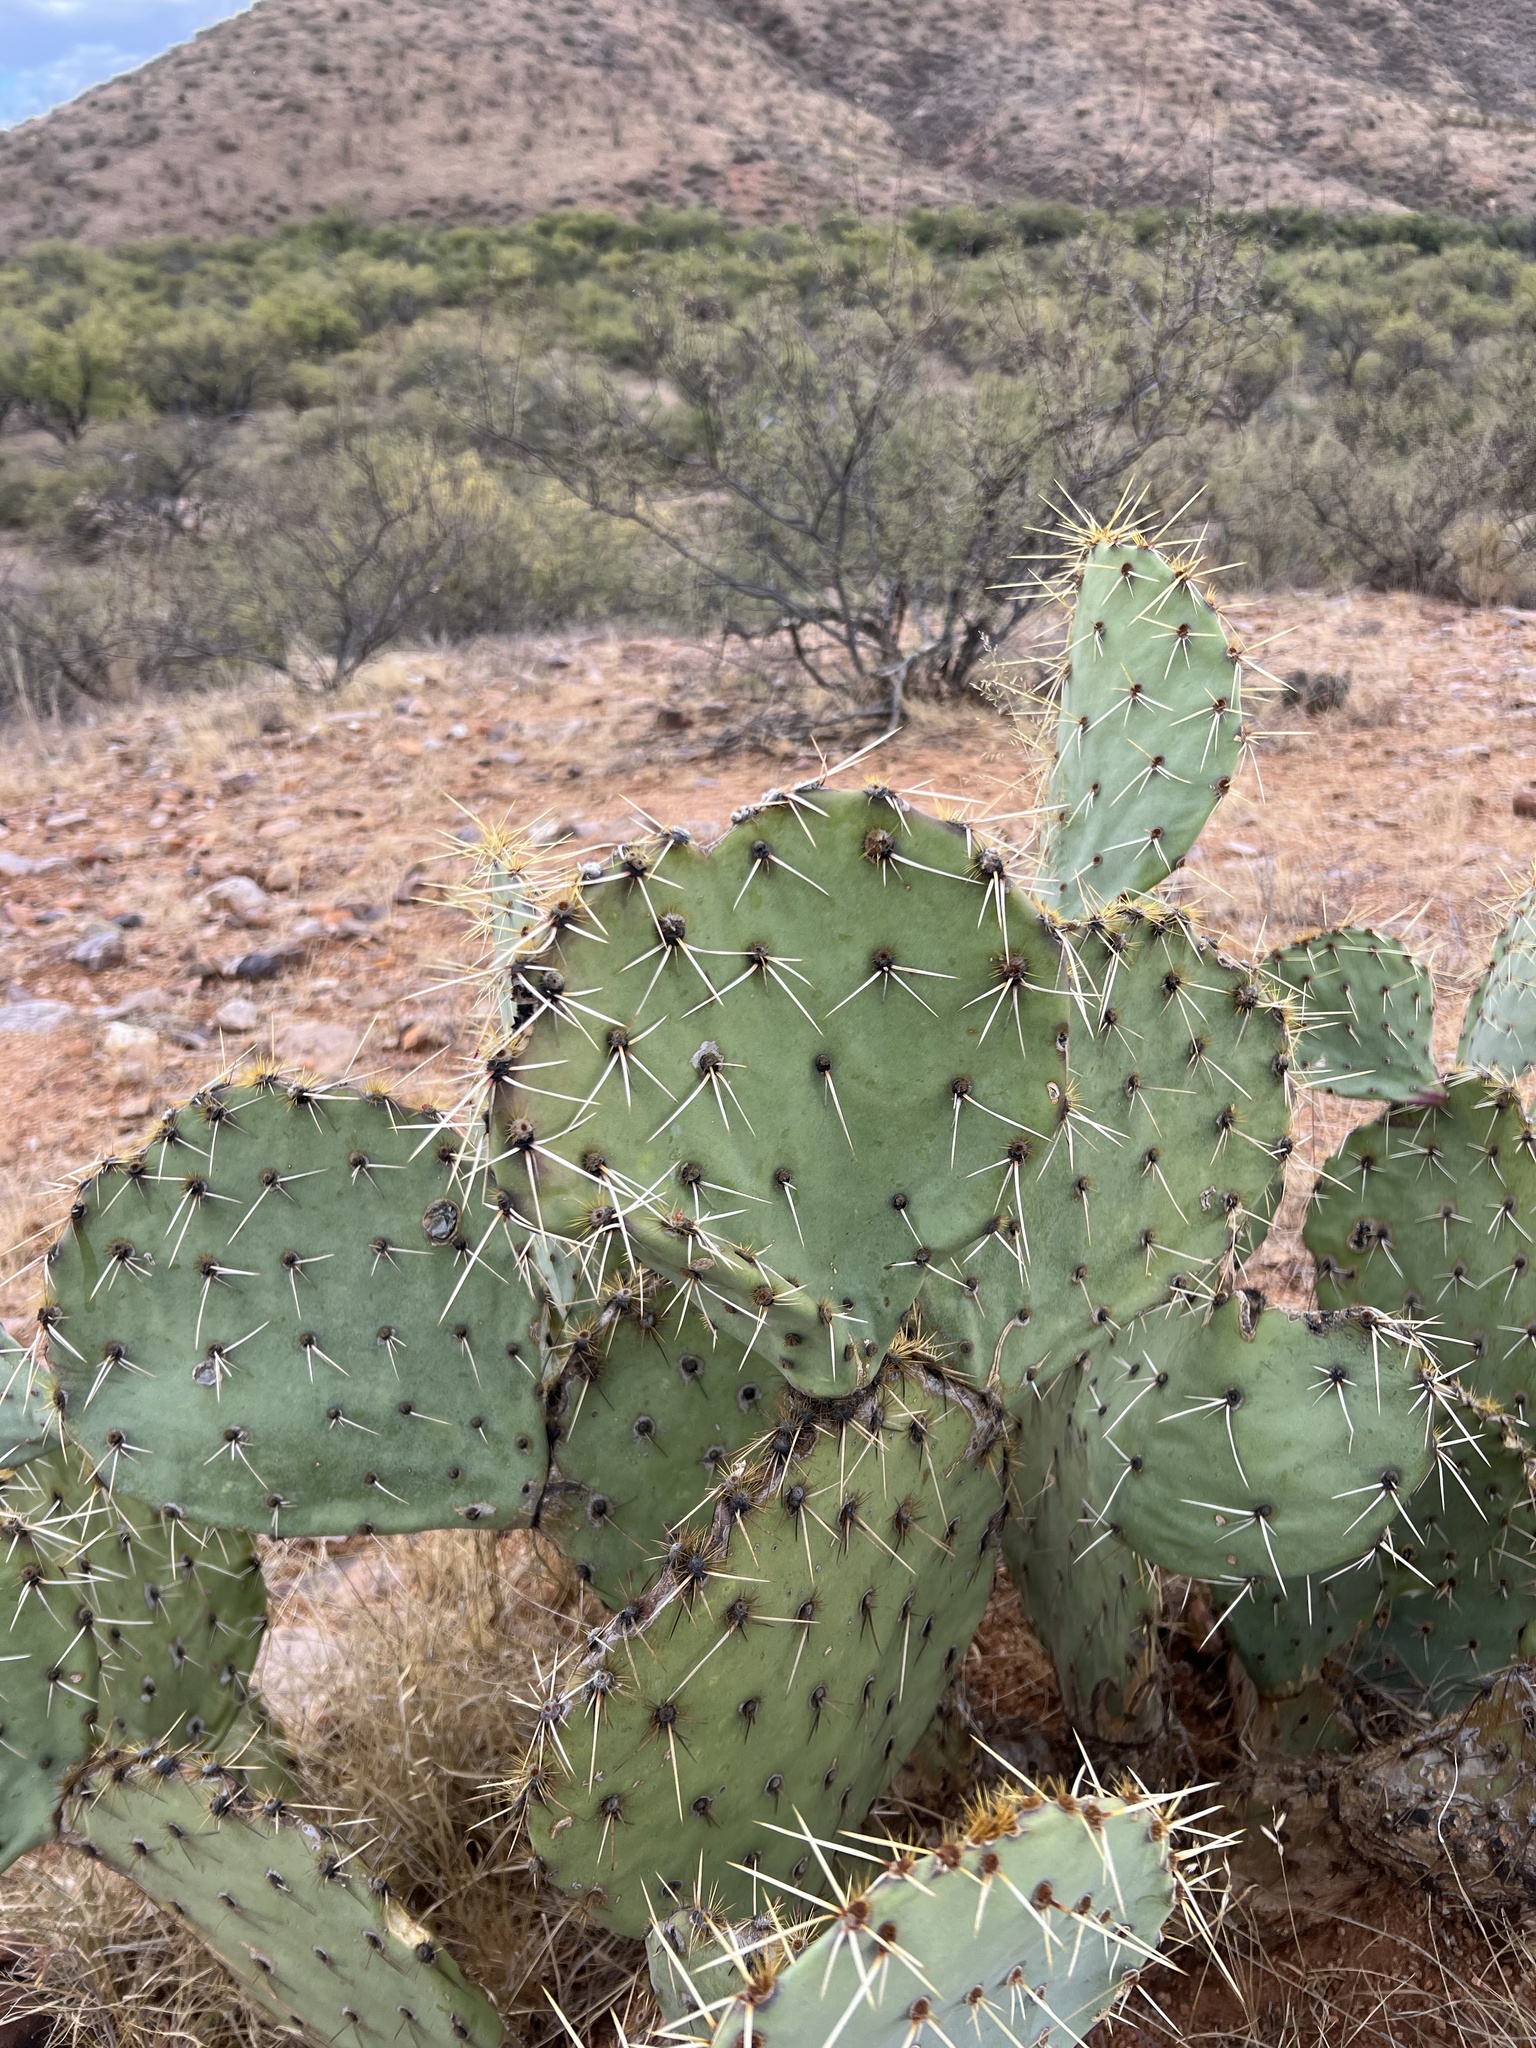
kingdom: Plantae
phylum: Tracheophyta
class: Magnoliopsida
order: Caryophyllales
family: Cactaceae
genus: Opuntia
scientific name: Opuntia engelmannii
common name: Cactus-apple
